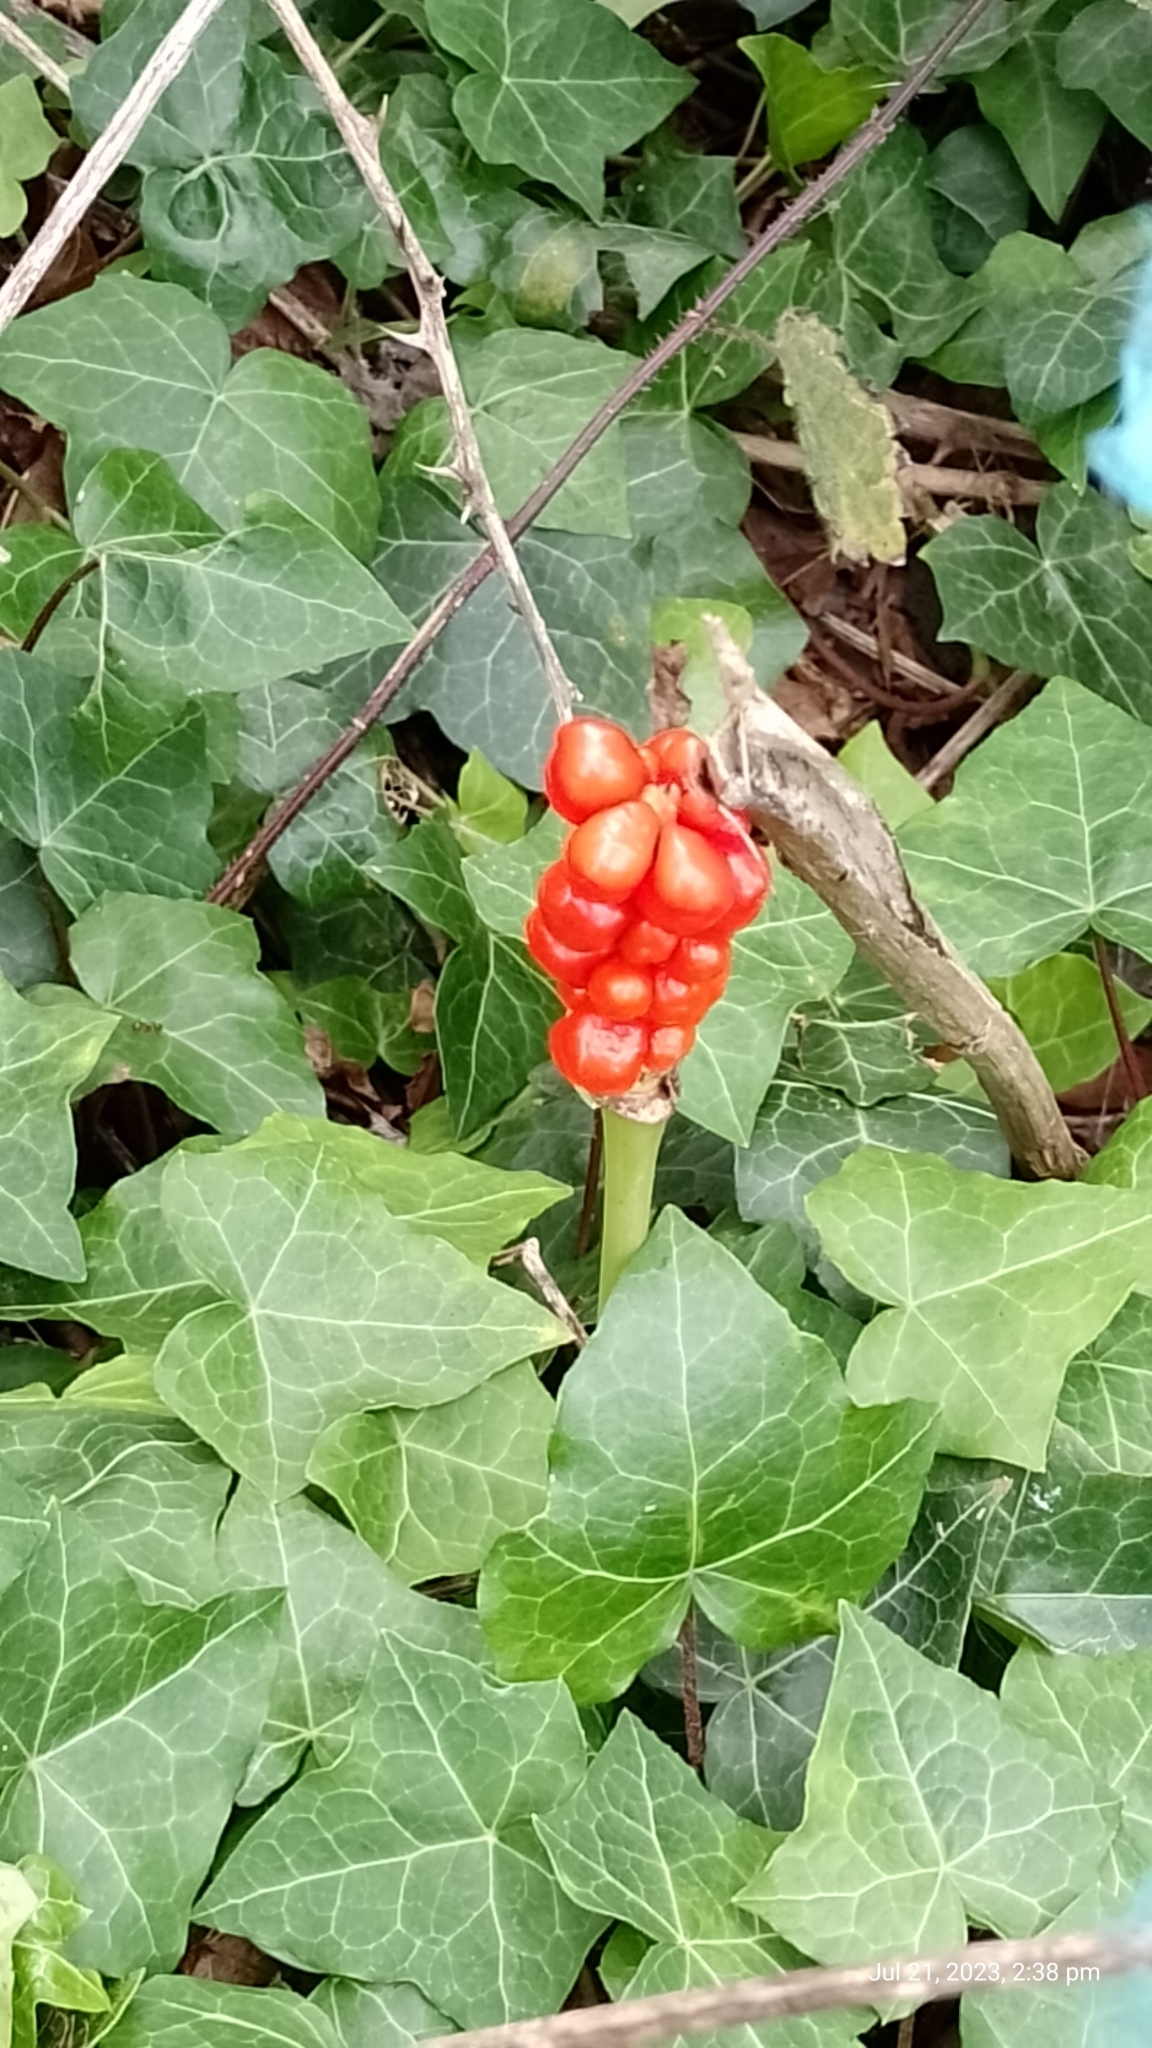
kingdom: Plantae
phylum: Tracheophyta
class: Liliopsida
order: Alismatales
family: Araceae
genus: Arum
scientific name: Arum maculatum
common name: Lords-and-ladies
